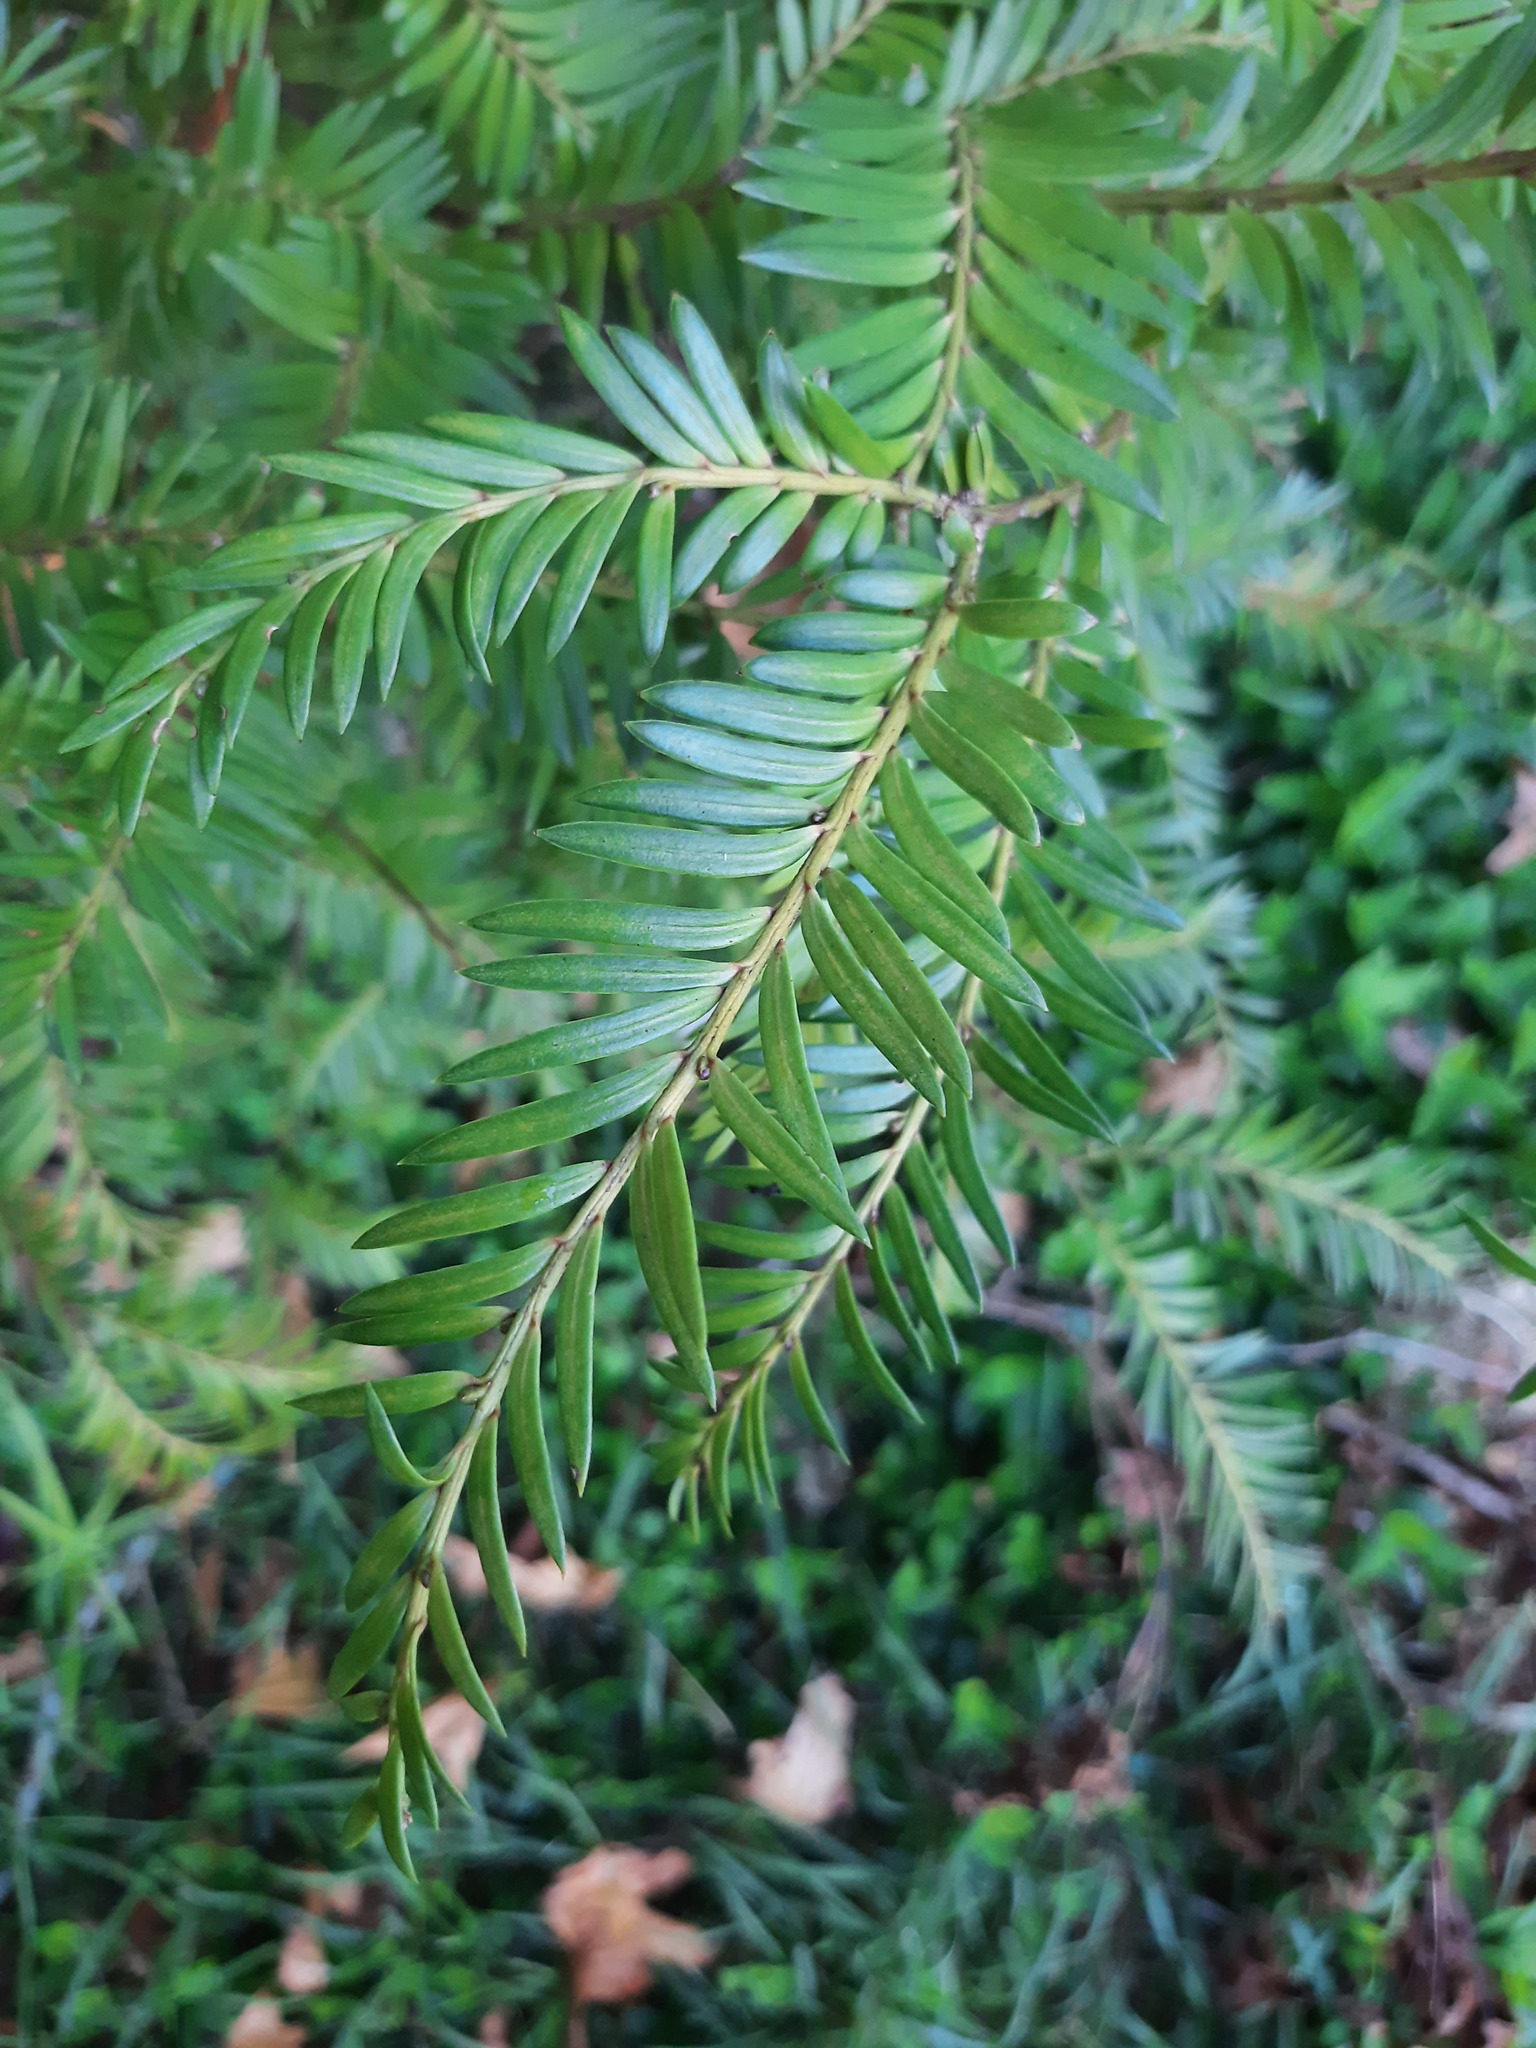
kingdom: Plantae
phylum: Tracheophyta
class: Pinopsida
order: Pinales
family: Podocarpaceae
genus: Prumnopitys
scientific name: Prumnopitys ferruginea
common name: Brown pine
